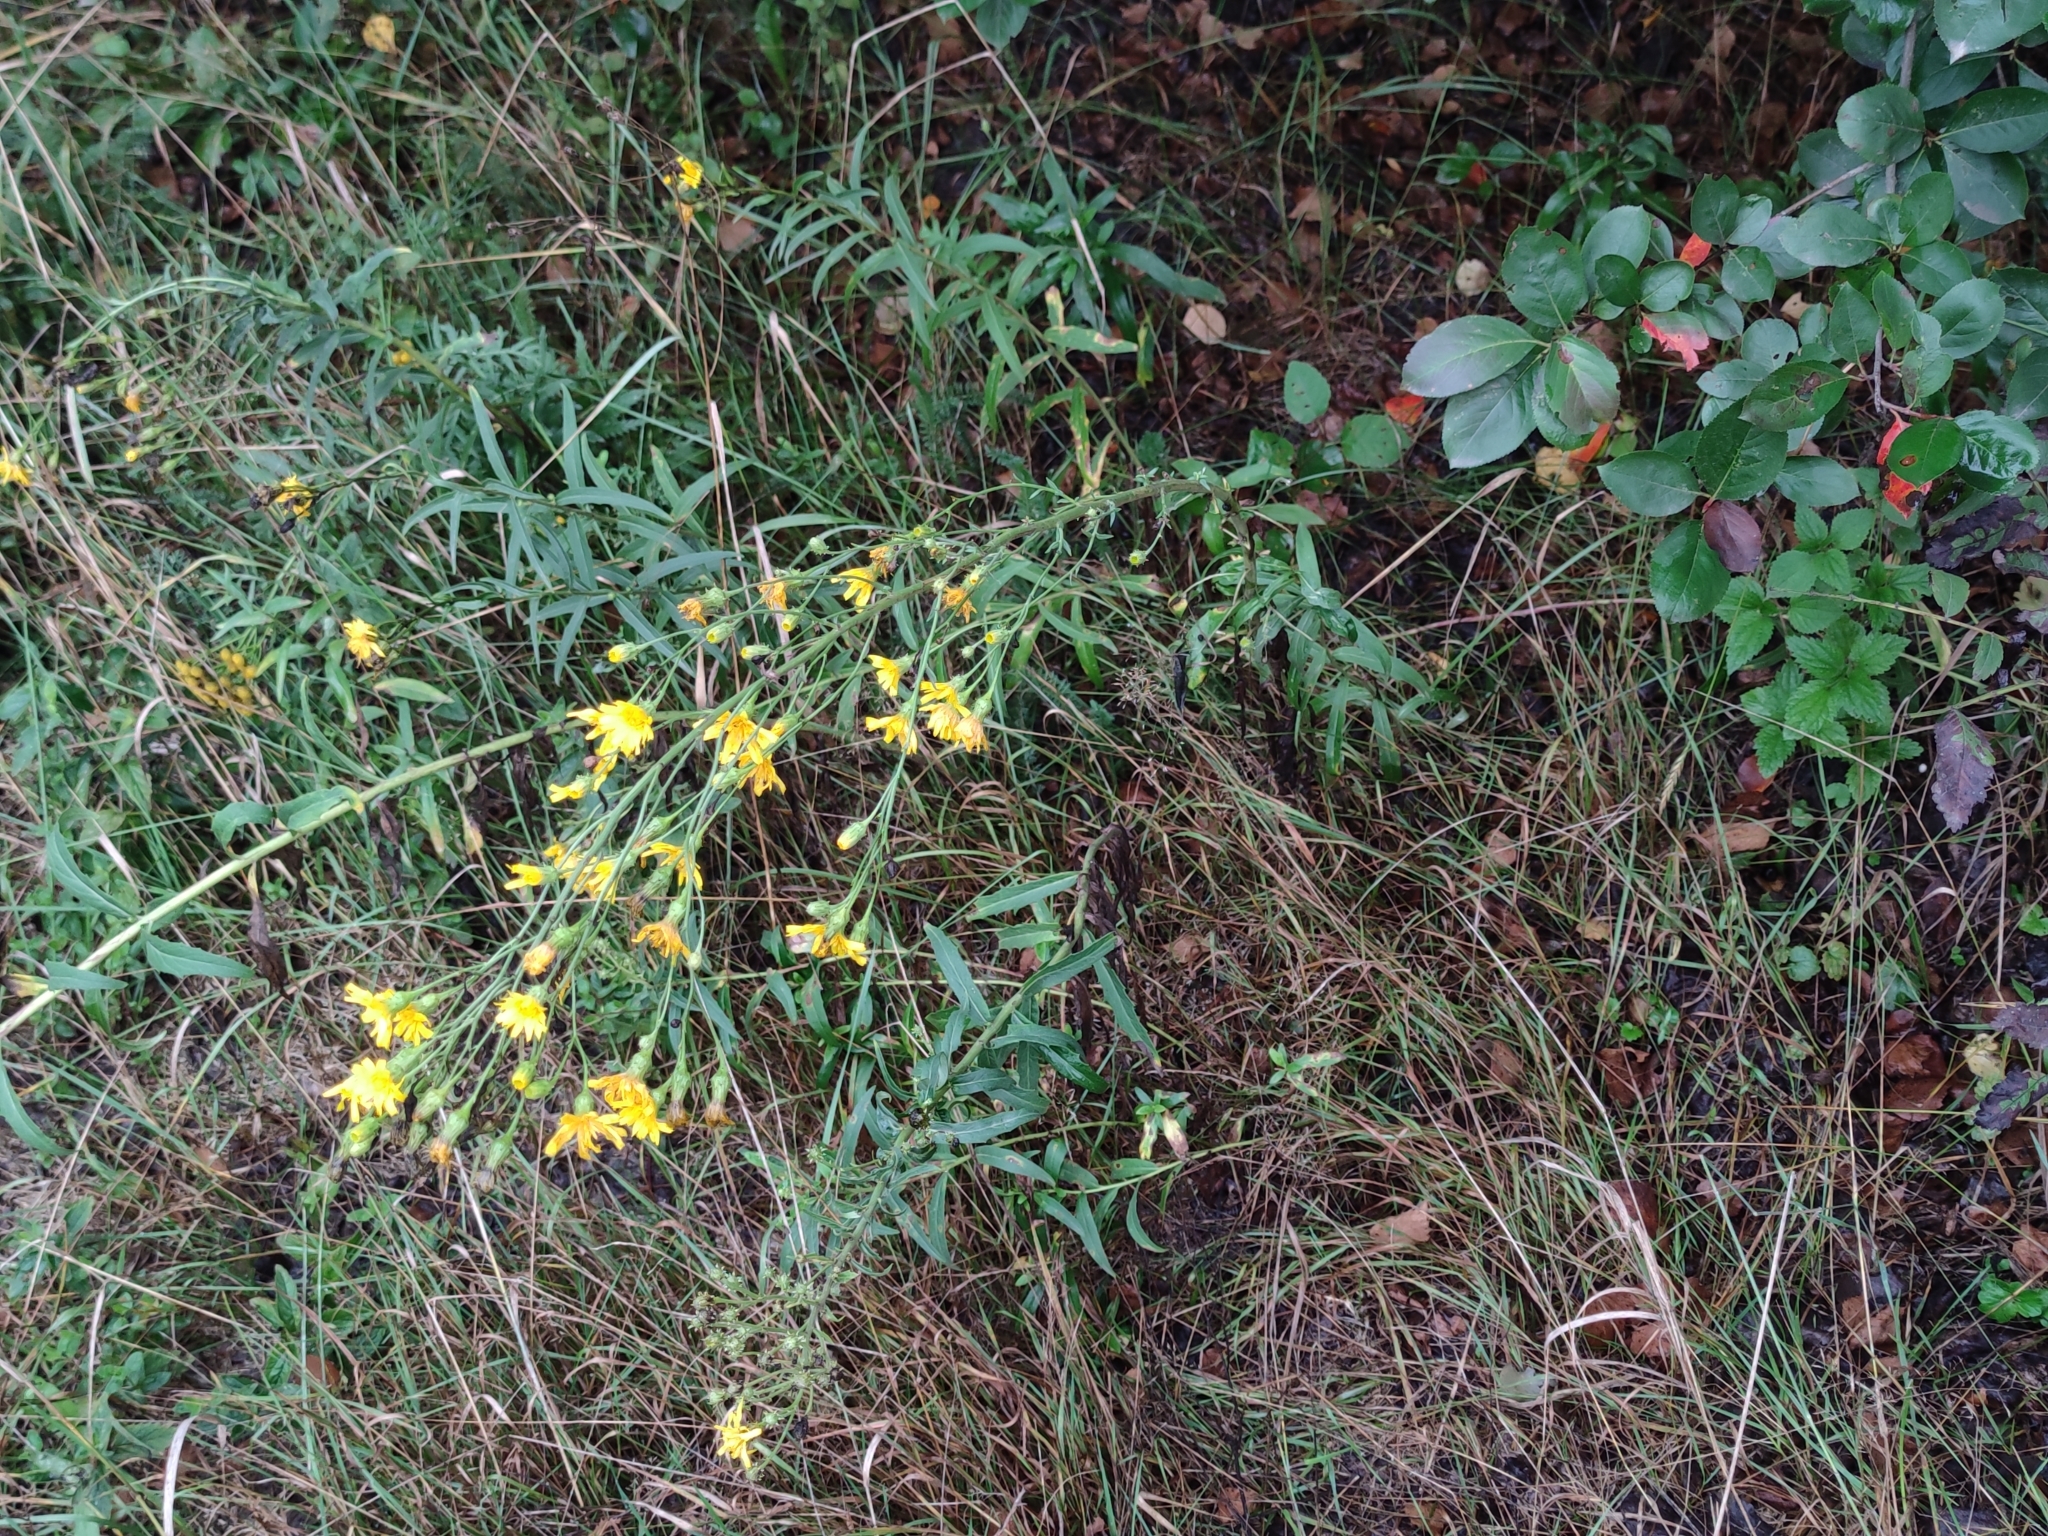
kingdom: Plantae
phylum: Tracheophyta
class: Magnoliopsida
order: Asterales
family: Asteraceae
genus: Hieracium
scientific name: Hieracium umbellatum
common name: Northern hawkweed
